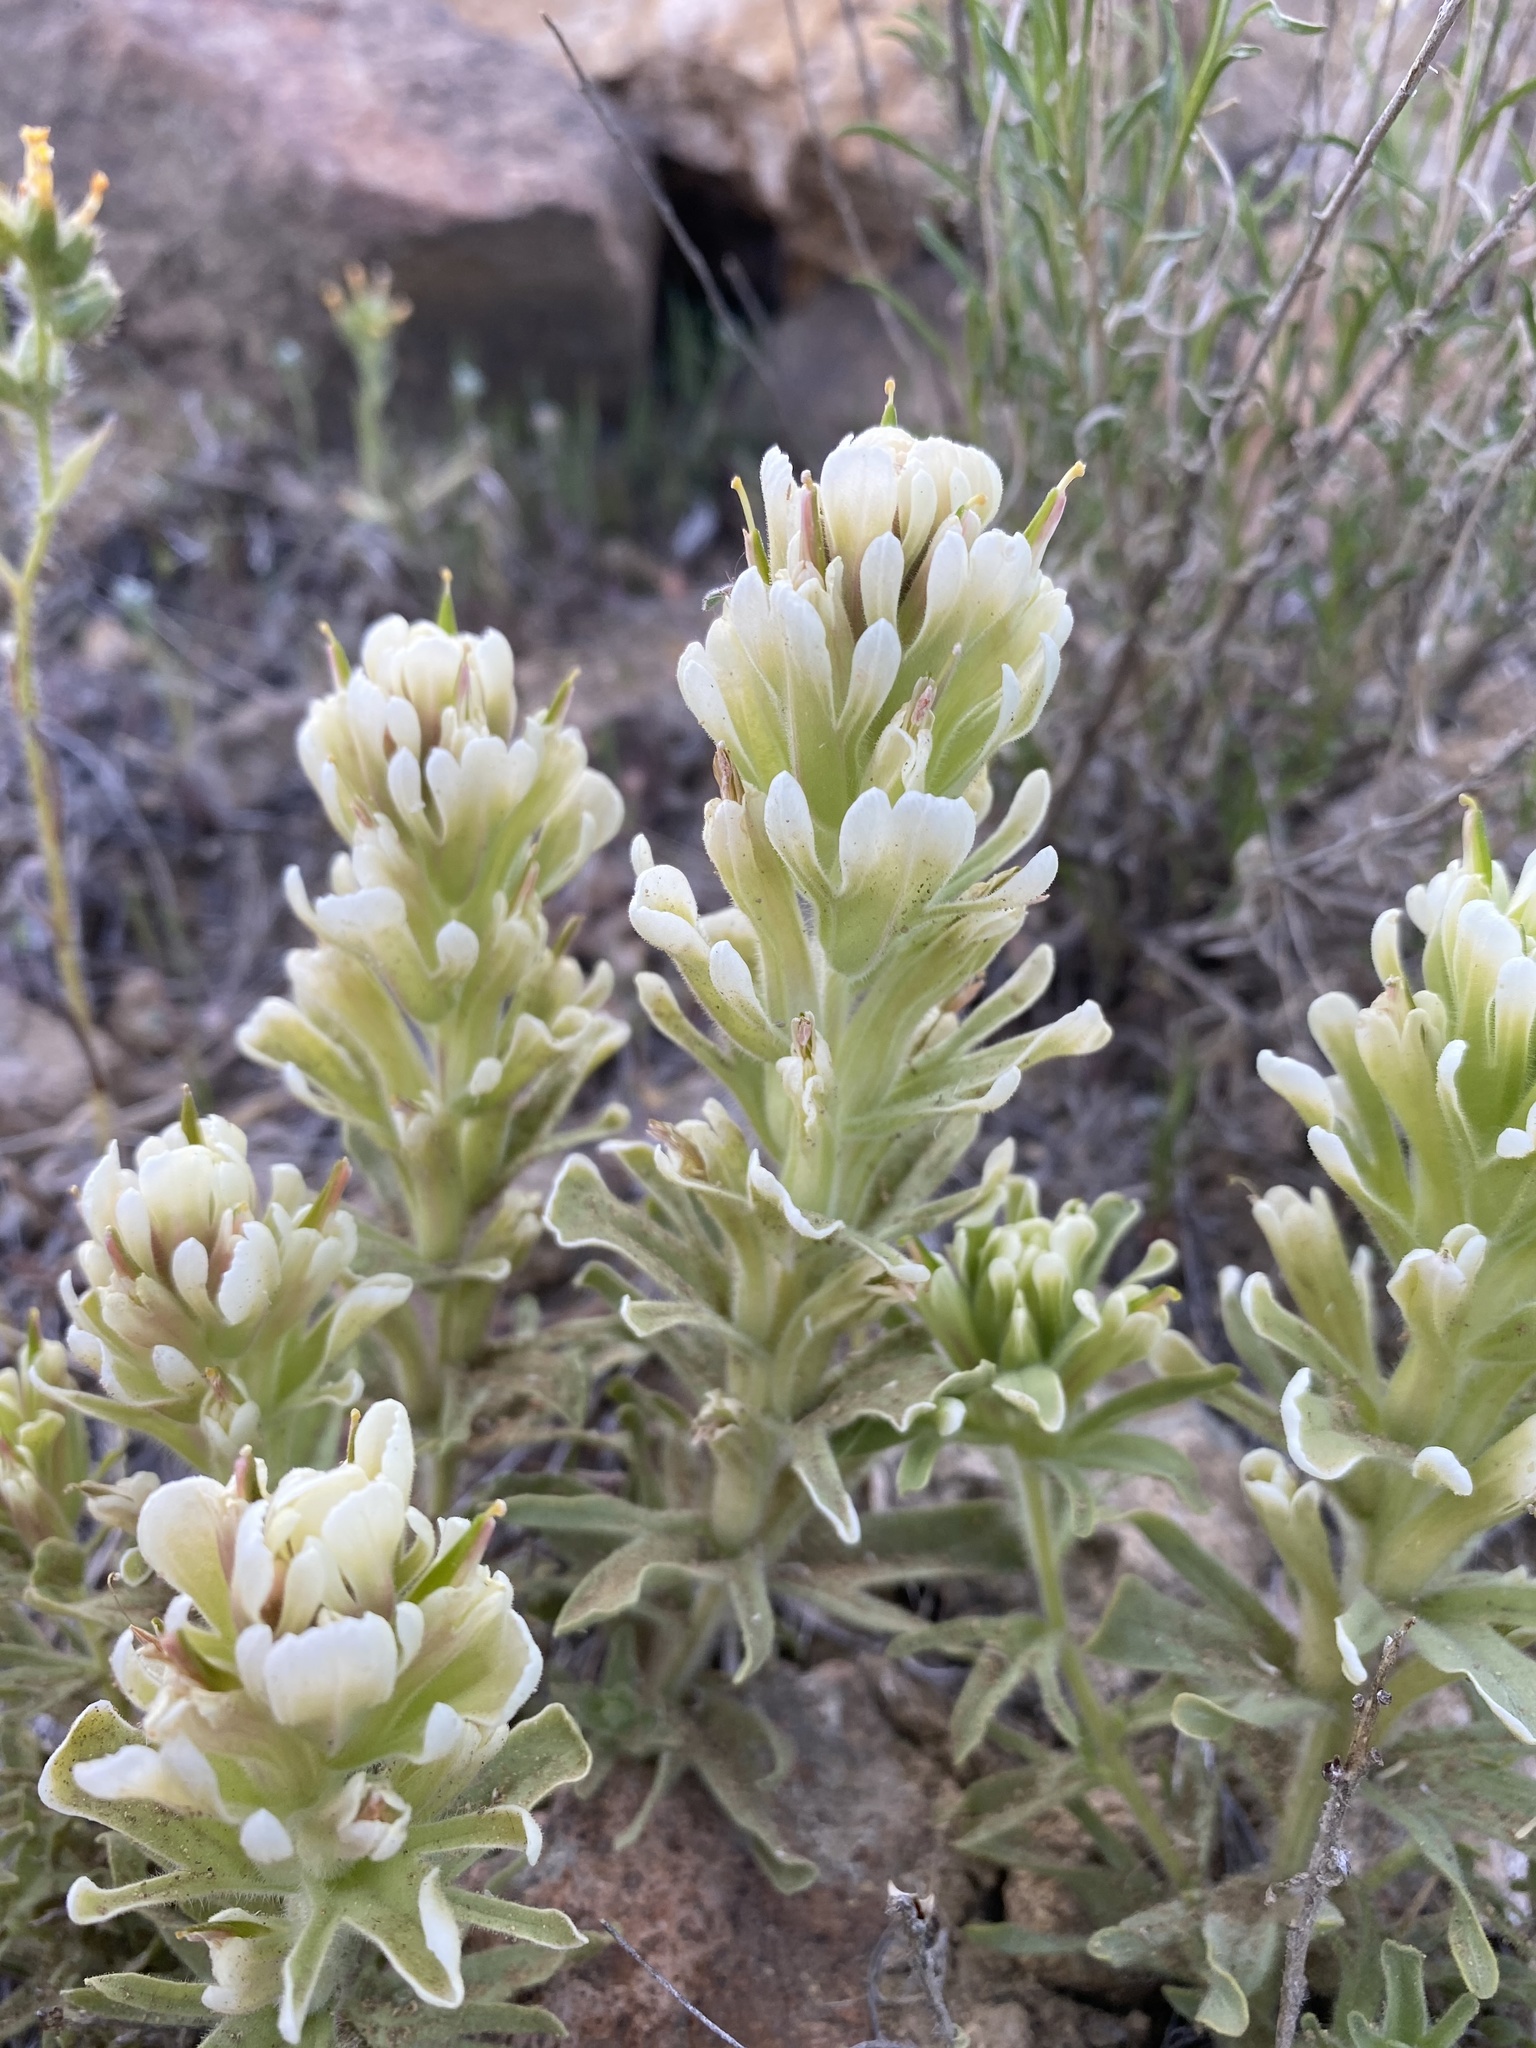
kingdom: Plantae
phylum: Tracheophyta
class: Magnoliopsida
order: Lamiales
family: Orobanchaceae
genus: Castilleja
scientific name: Castilleja xanthotricha
